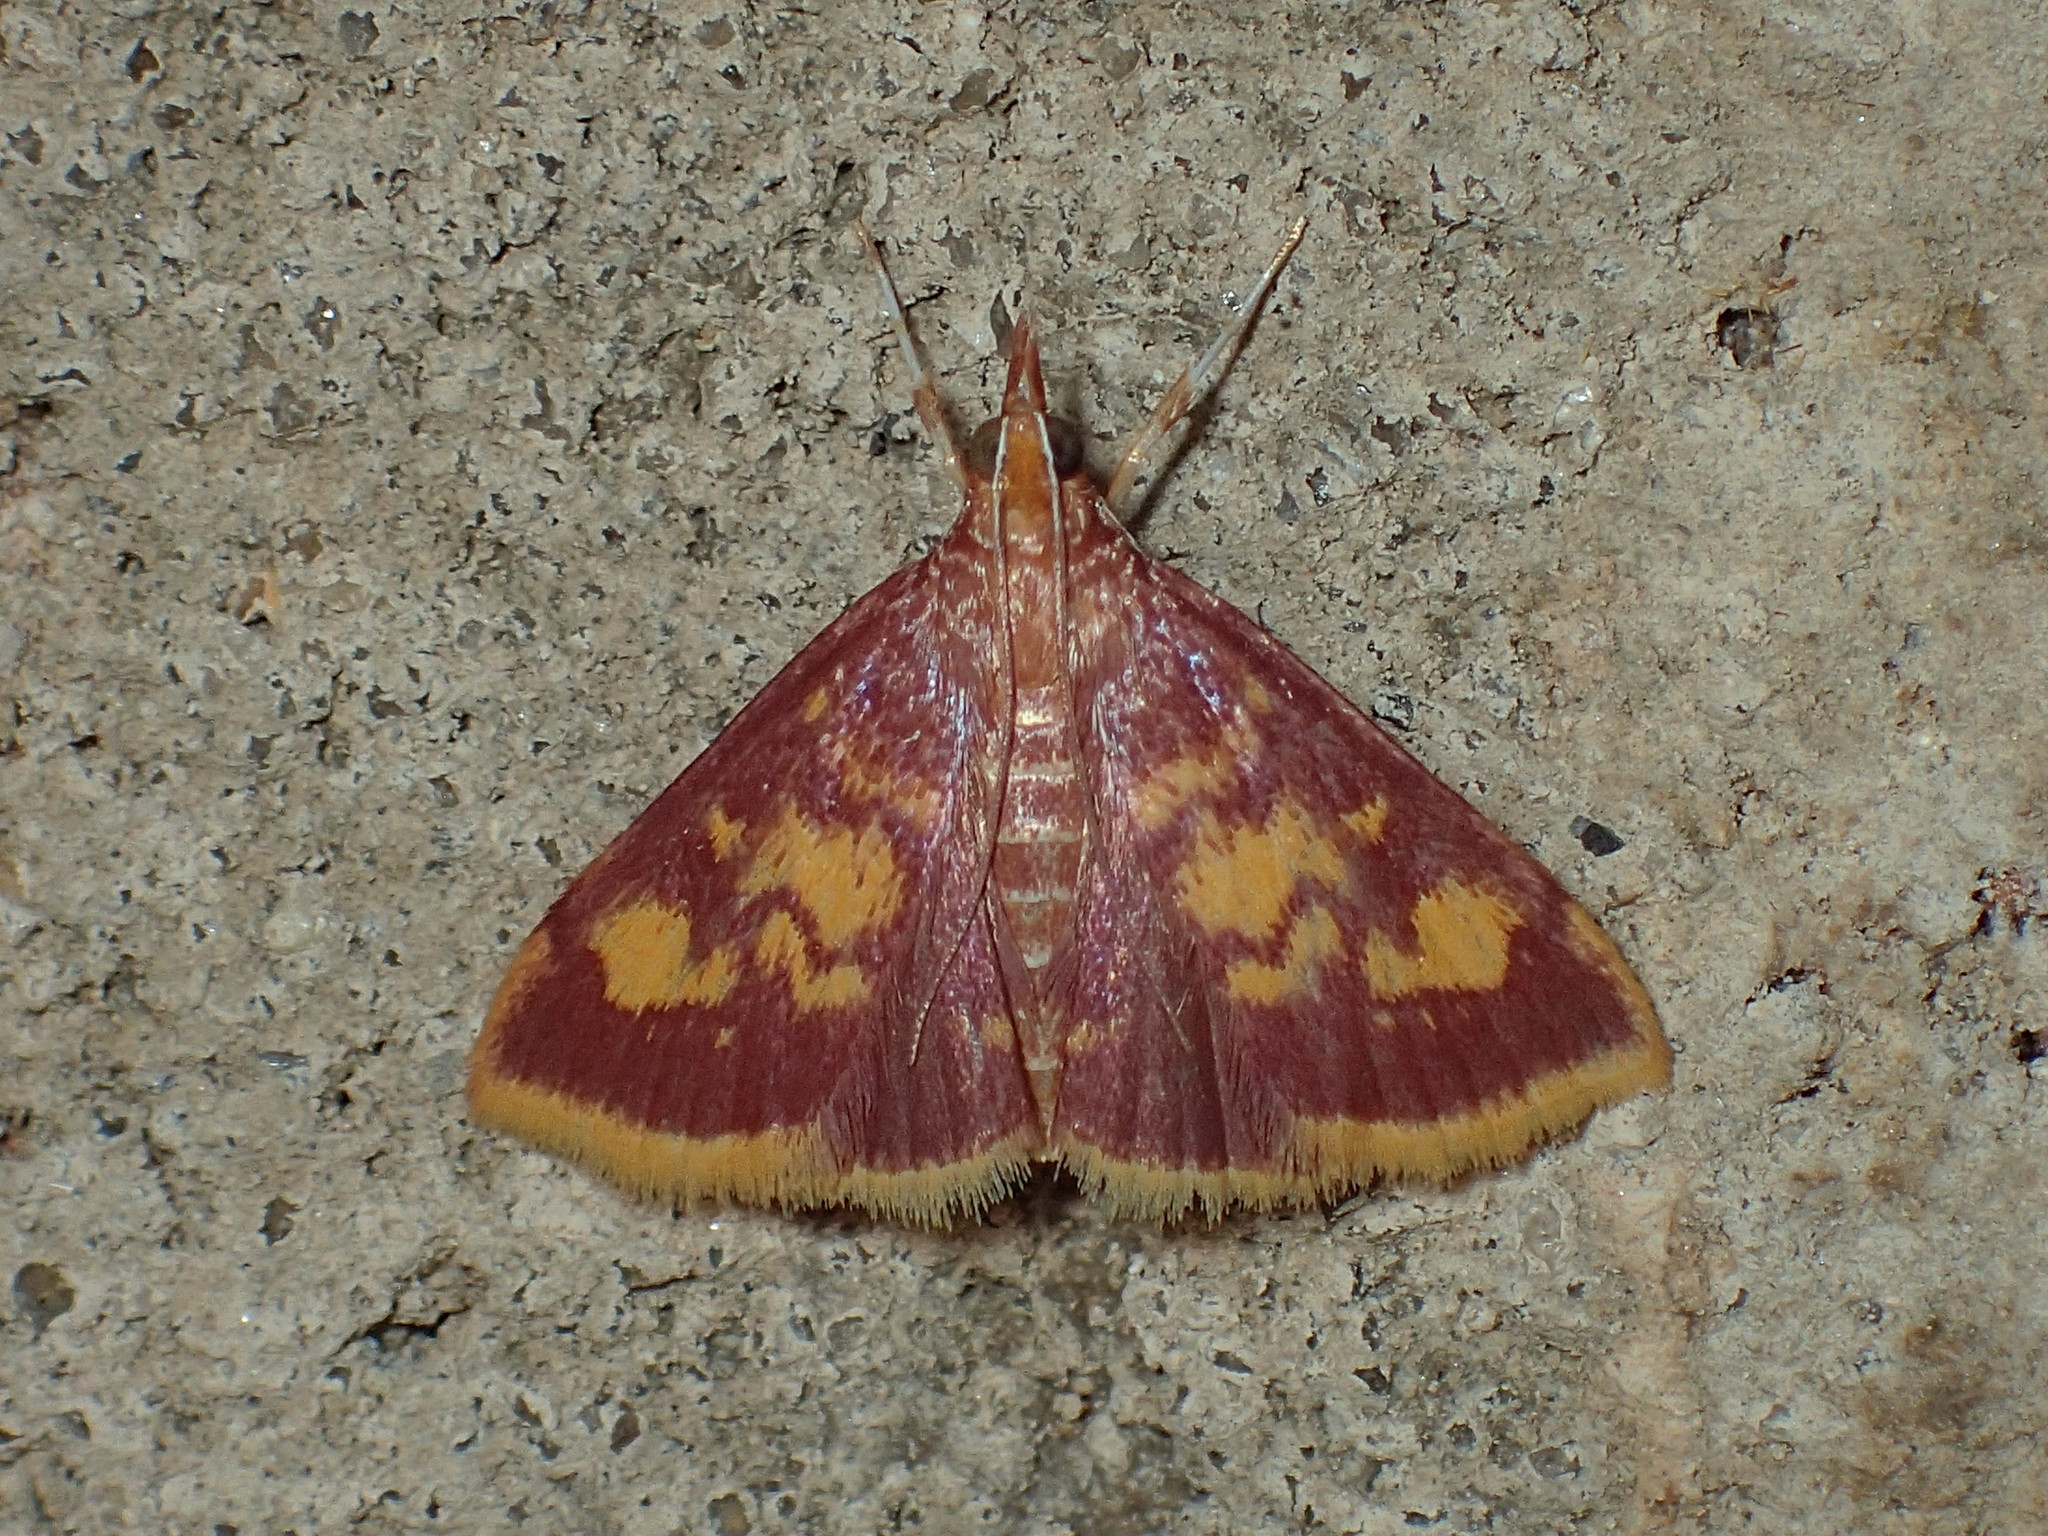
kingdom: Animalia
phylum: Arthropoda
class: Insecta
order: Lepidoptera
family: Crambidae
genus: Pyrausta
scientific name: Pyrausta acrionalis
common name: Mint-loving pyrausta moth
